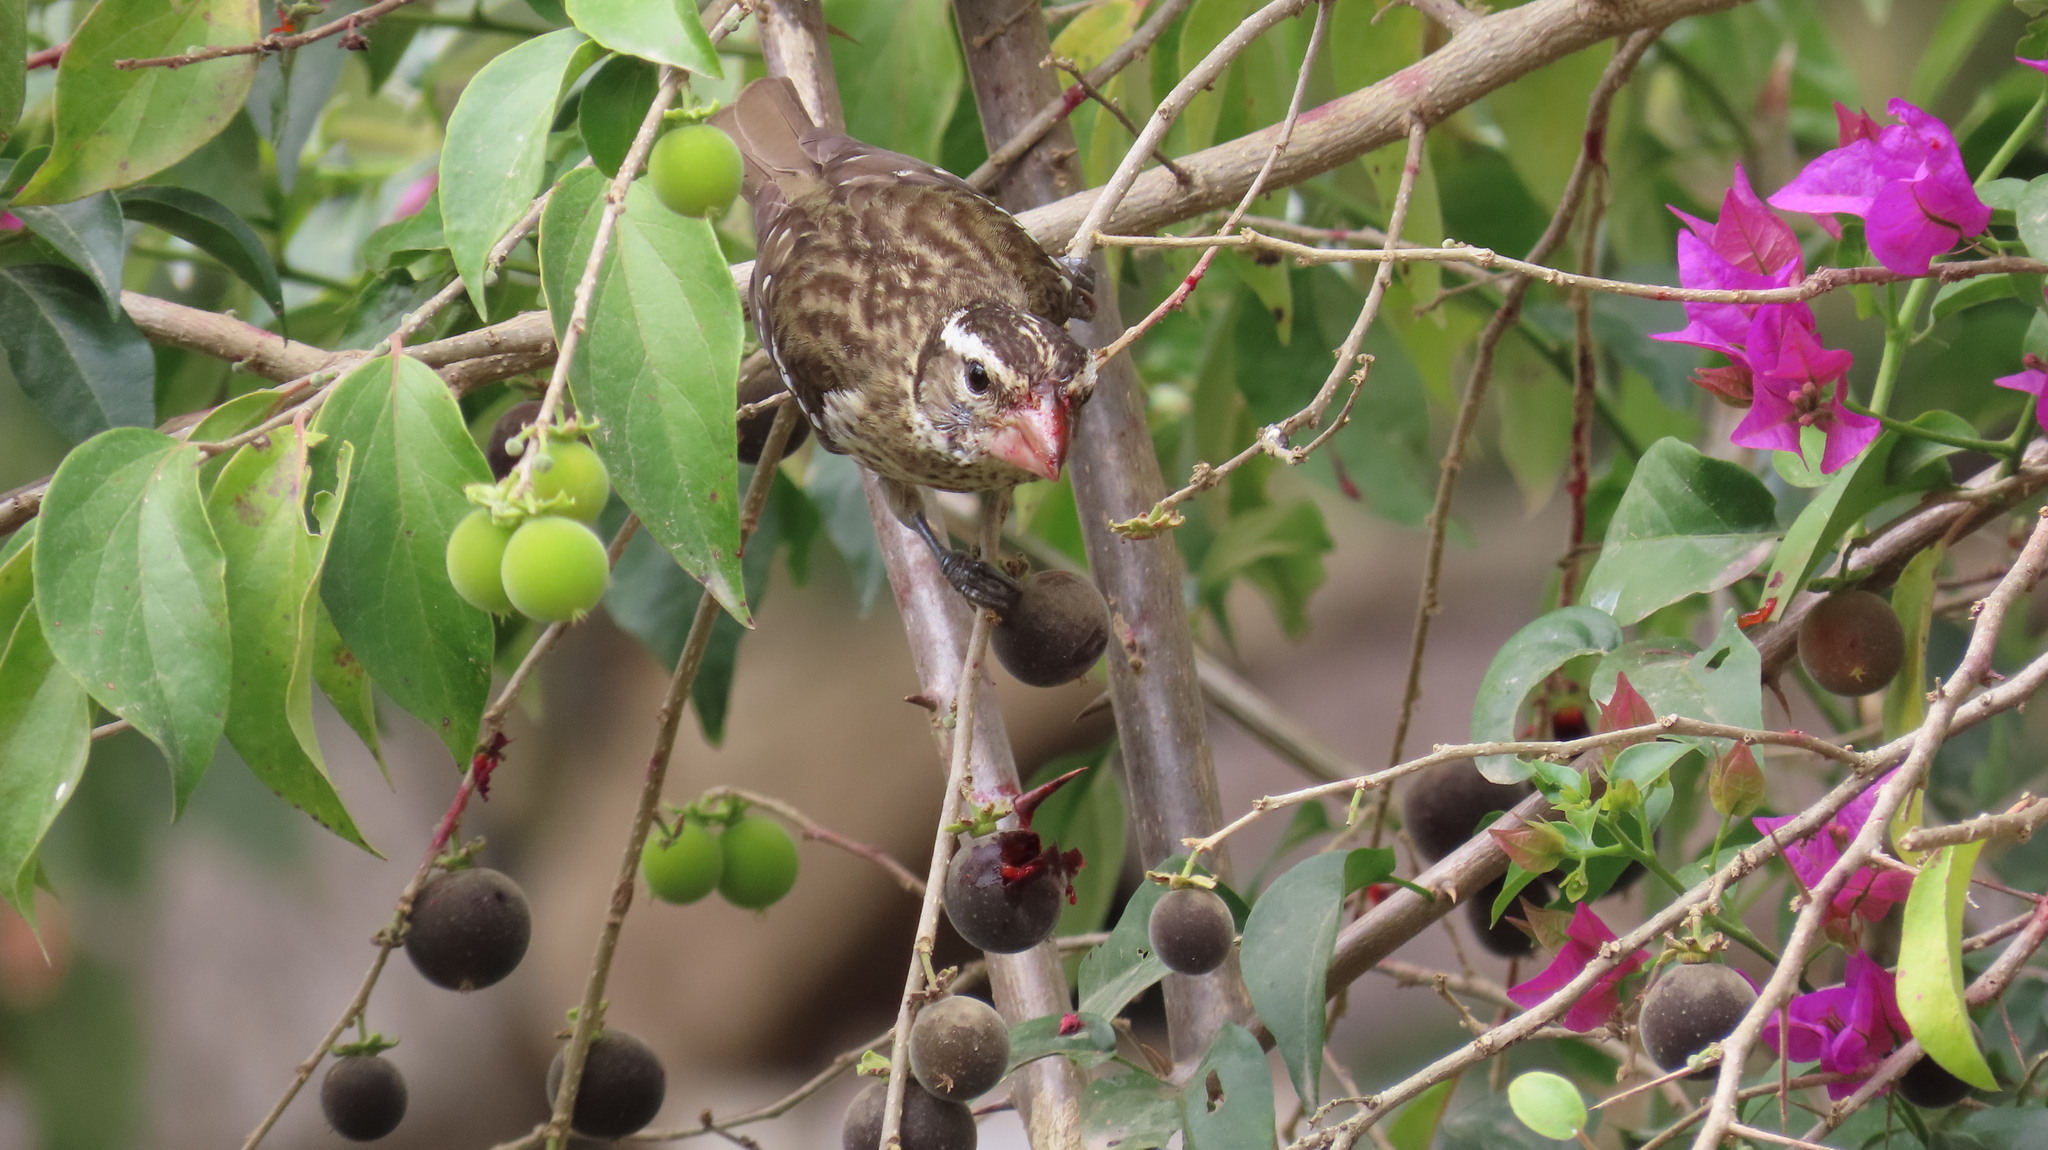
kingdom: Animalia
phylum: Chordata
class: Aves
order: Passeriformes
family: Cardinalidae
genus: Pheucticus
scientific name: Pheucticus ludovicianus
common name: Rose-breasted grosbeak
